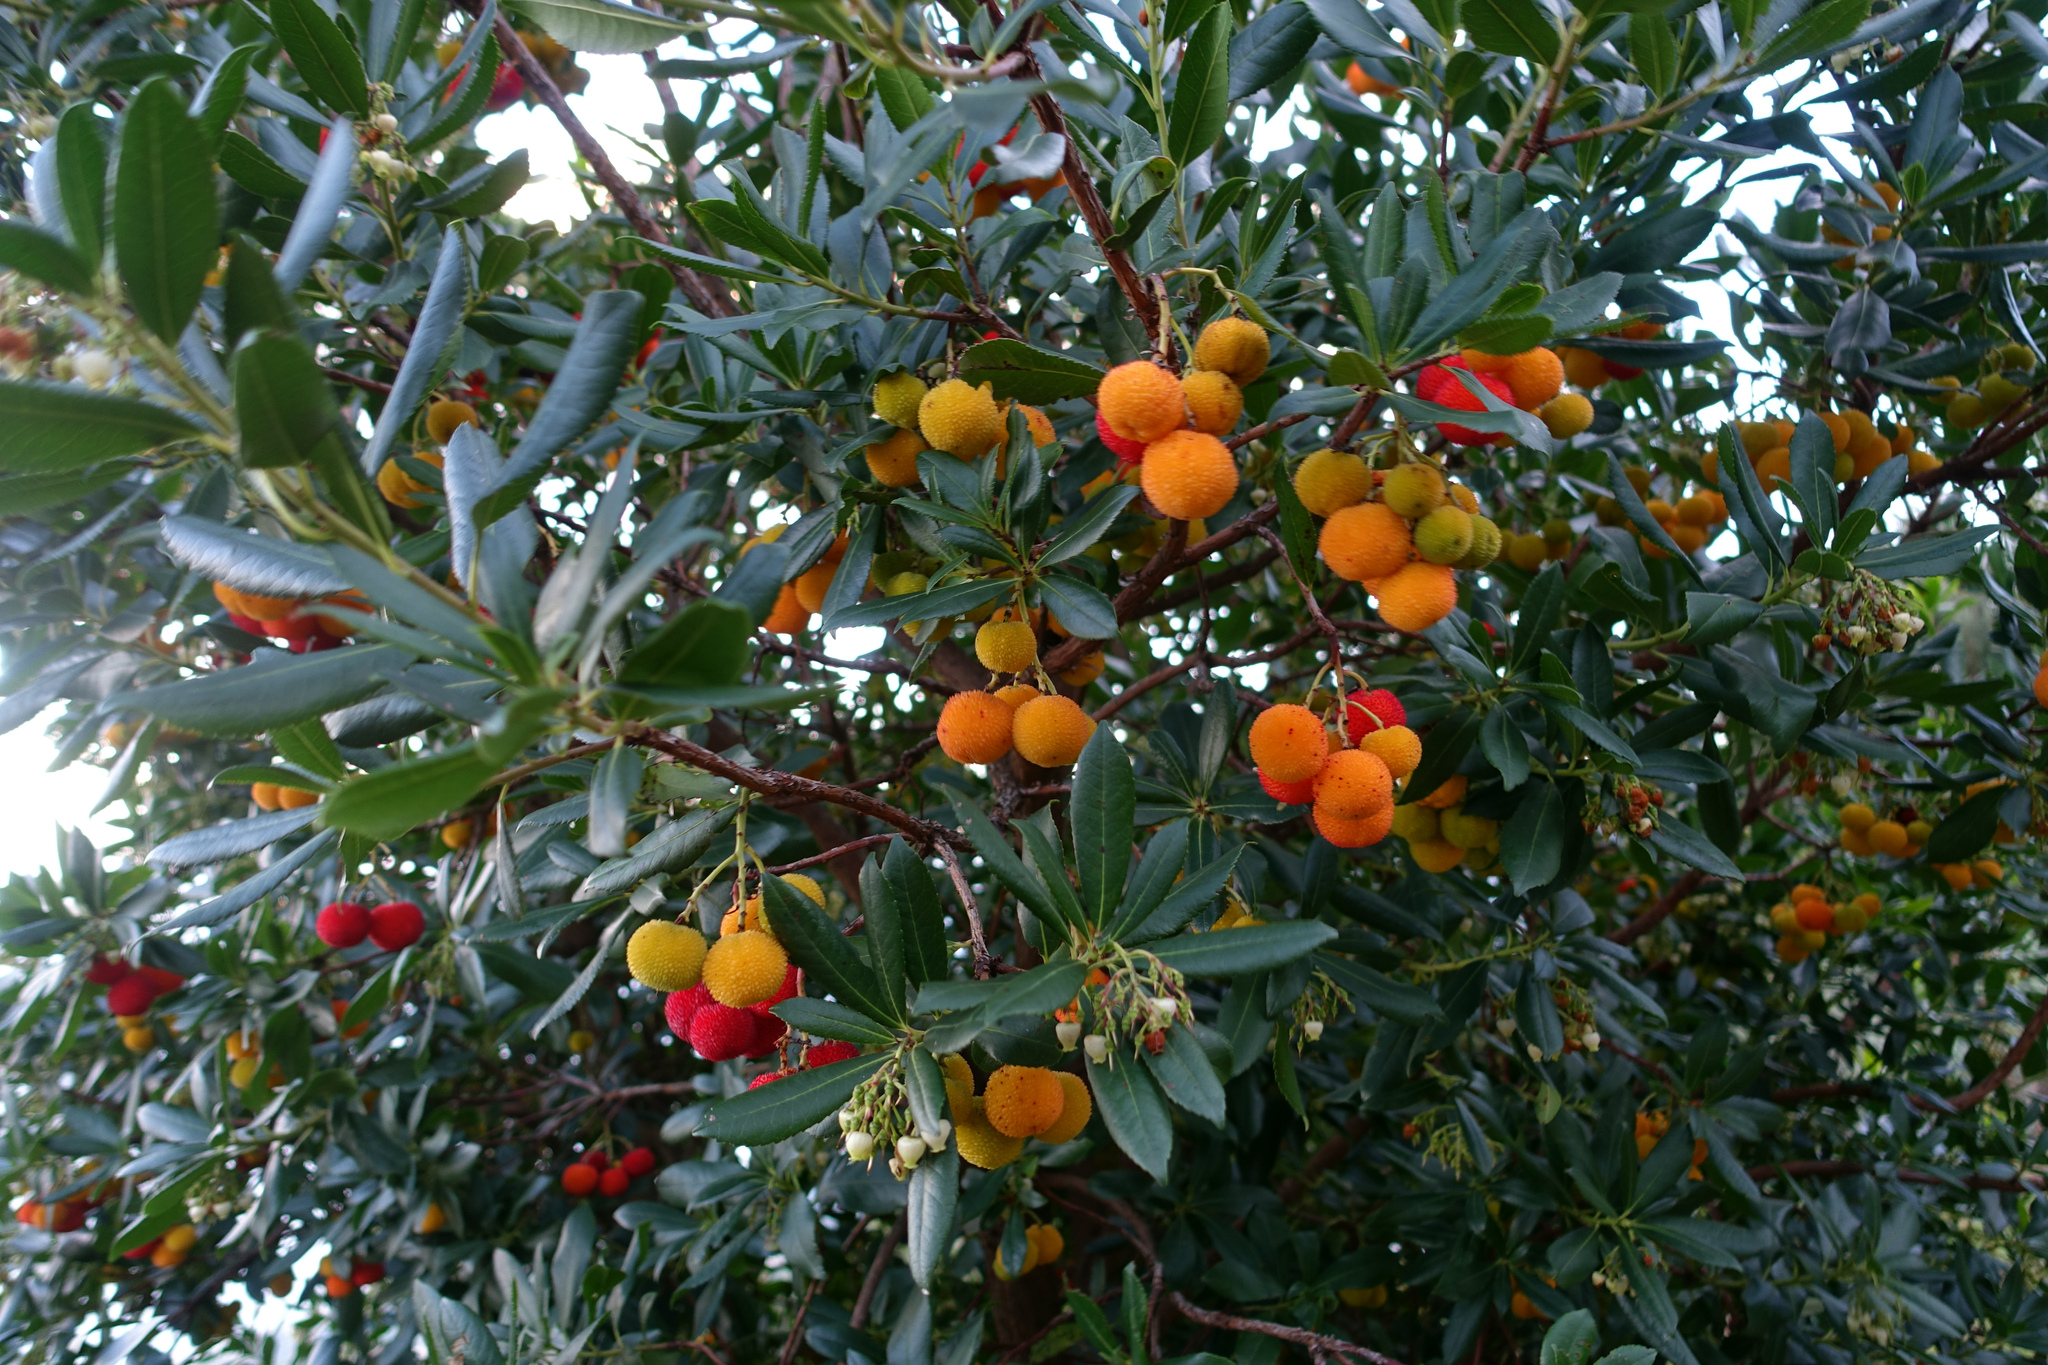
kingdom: Plantae
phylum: Tracheophyta
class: Magnoliopsida
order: Ericales
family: Ericaceae
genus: Arbutus
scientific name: Arbutus unedo
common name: Strawberry-tree
